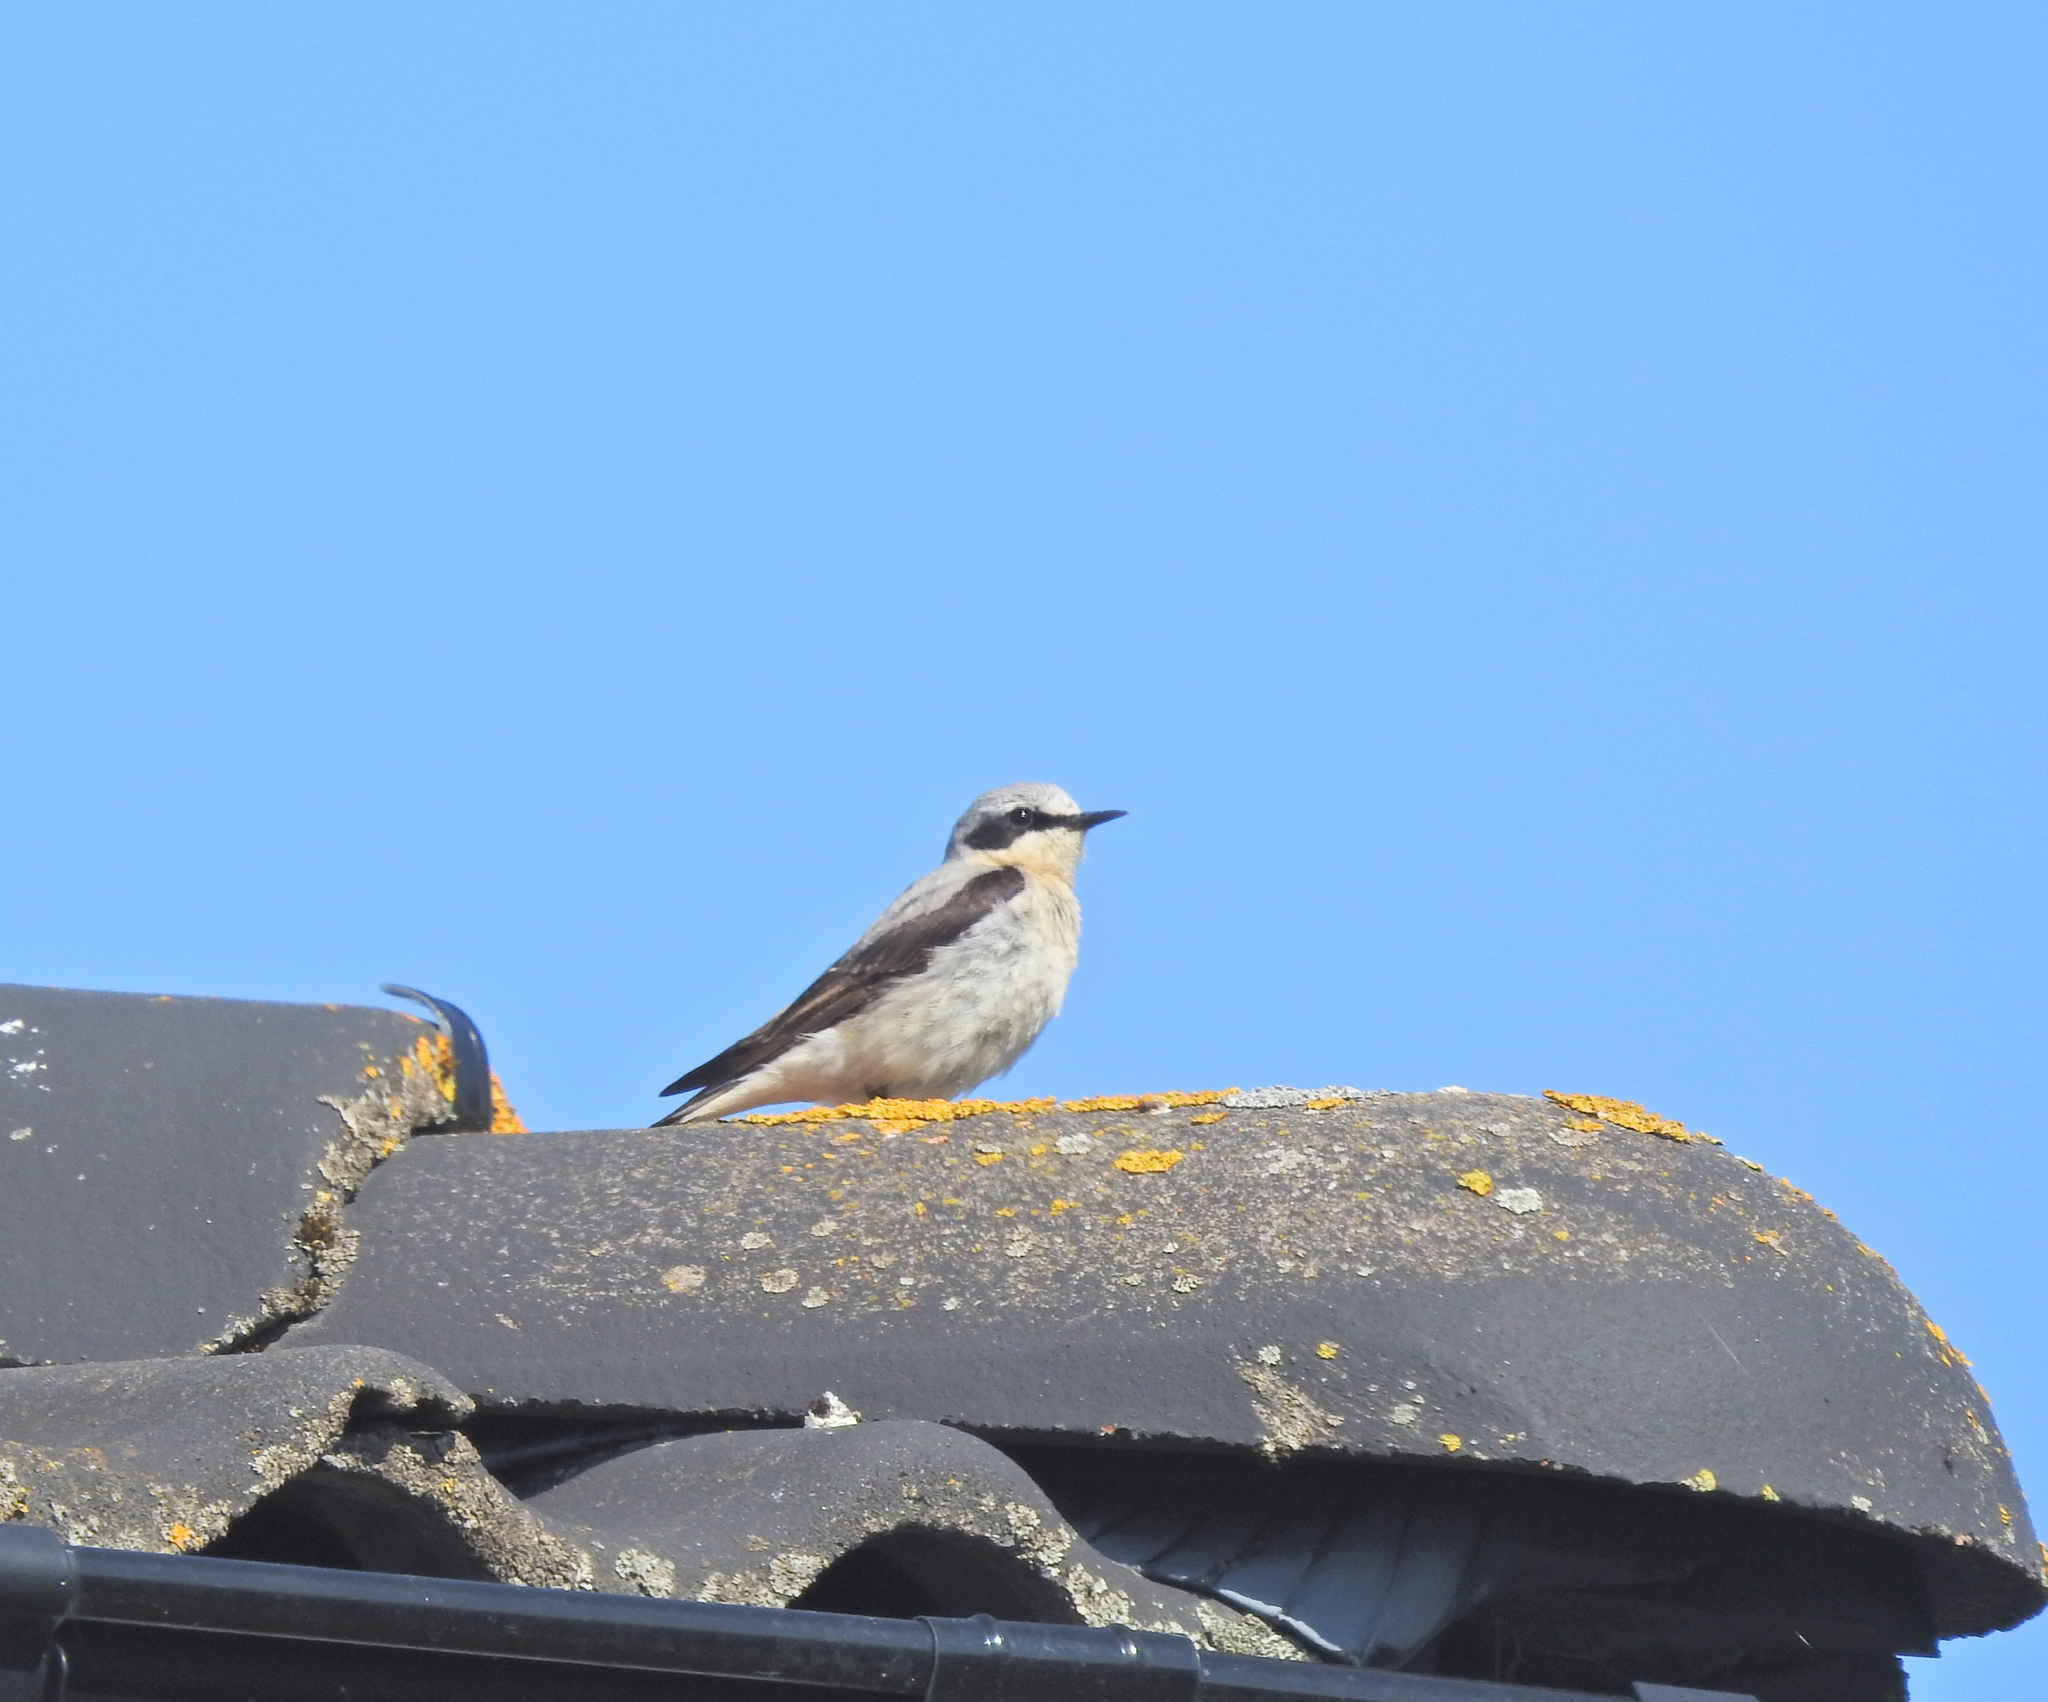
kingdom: Animalia
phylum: Chordata
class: Aves
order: Passeriformes
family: Muscicapidae
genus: Oenanthe
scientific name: Oenanthe oenanthe
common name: Northern wheatear
